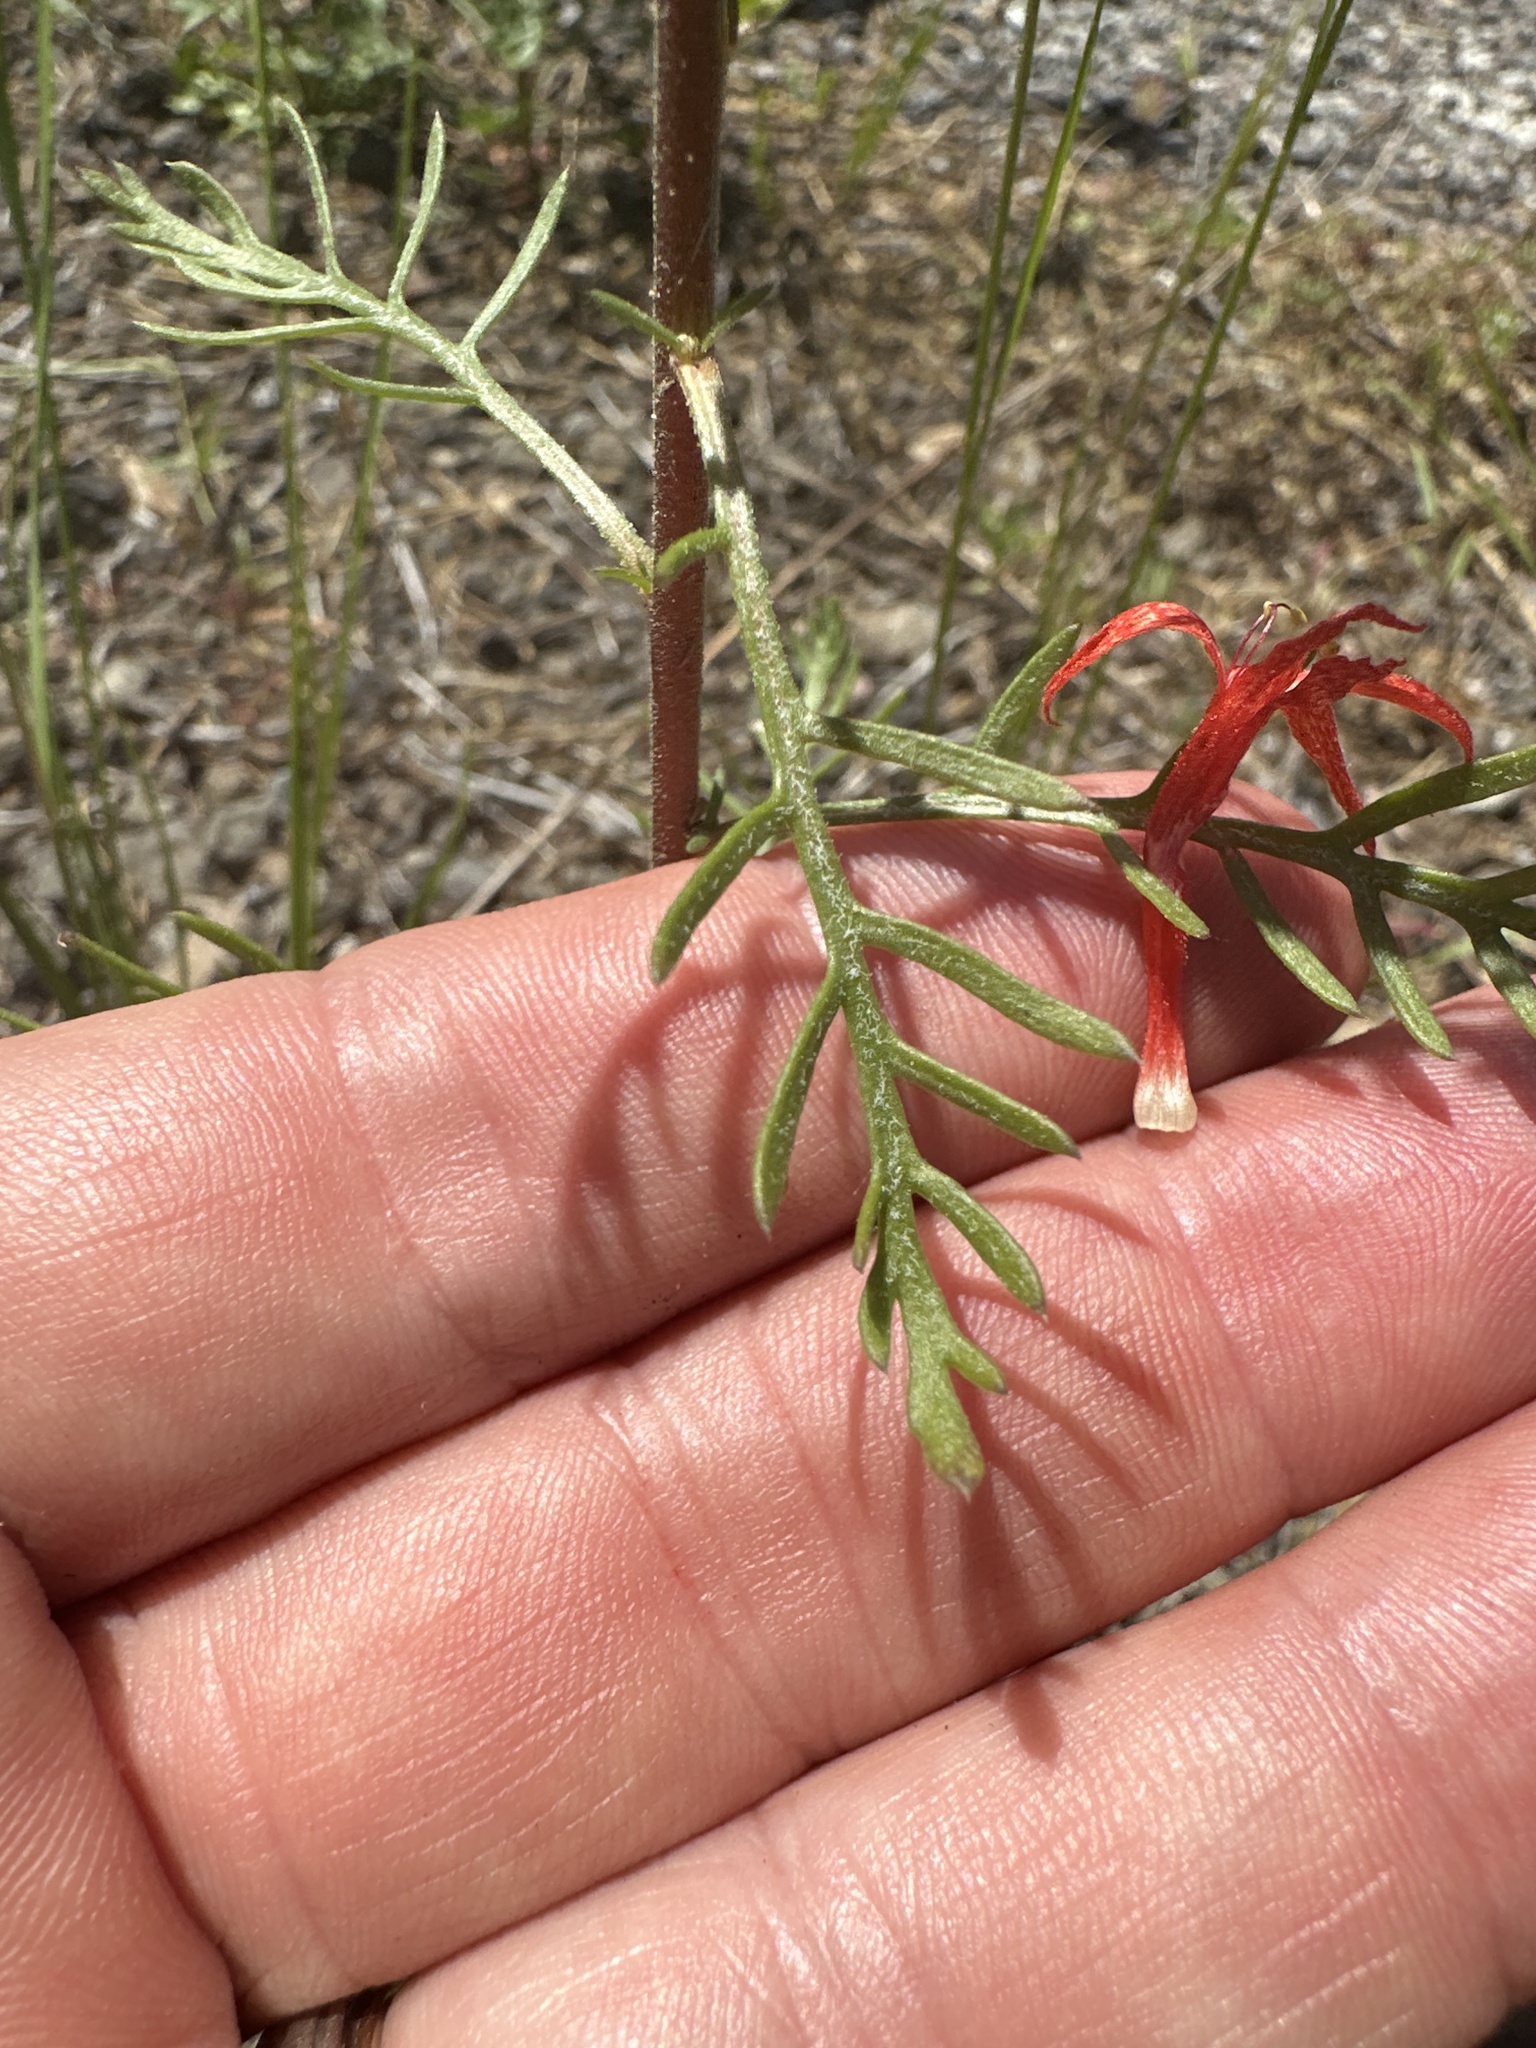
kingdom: Plantae
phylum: Tracheophyta
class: Magnoliopsida
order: Ericales
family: Polemoniaceae
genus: Ipomopsis
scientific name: Ipomopsis aggregata
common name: Scarlet gilia
